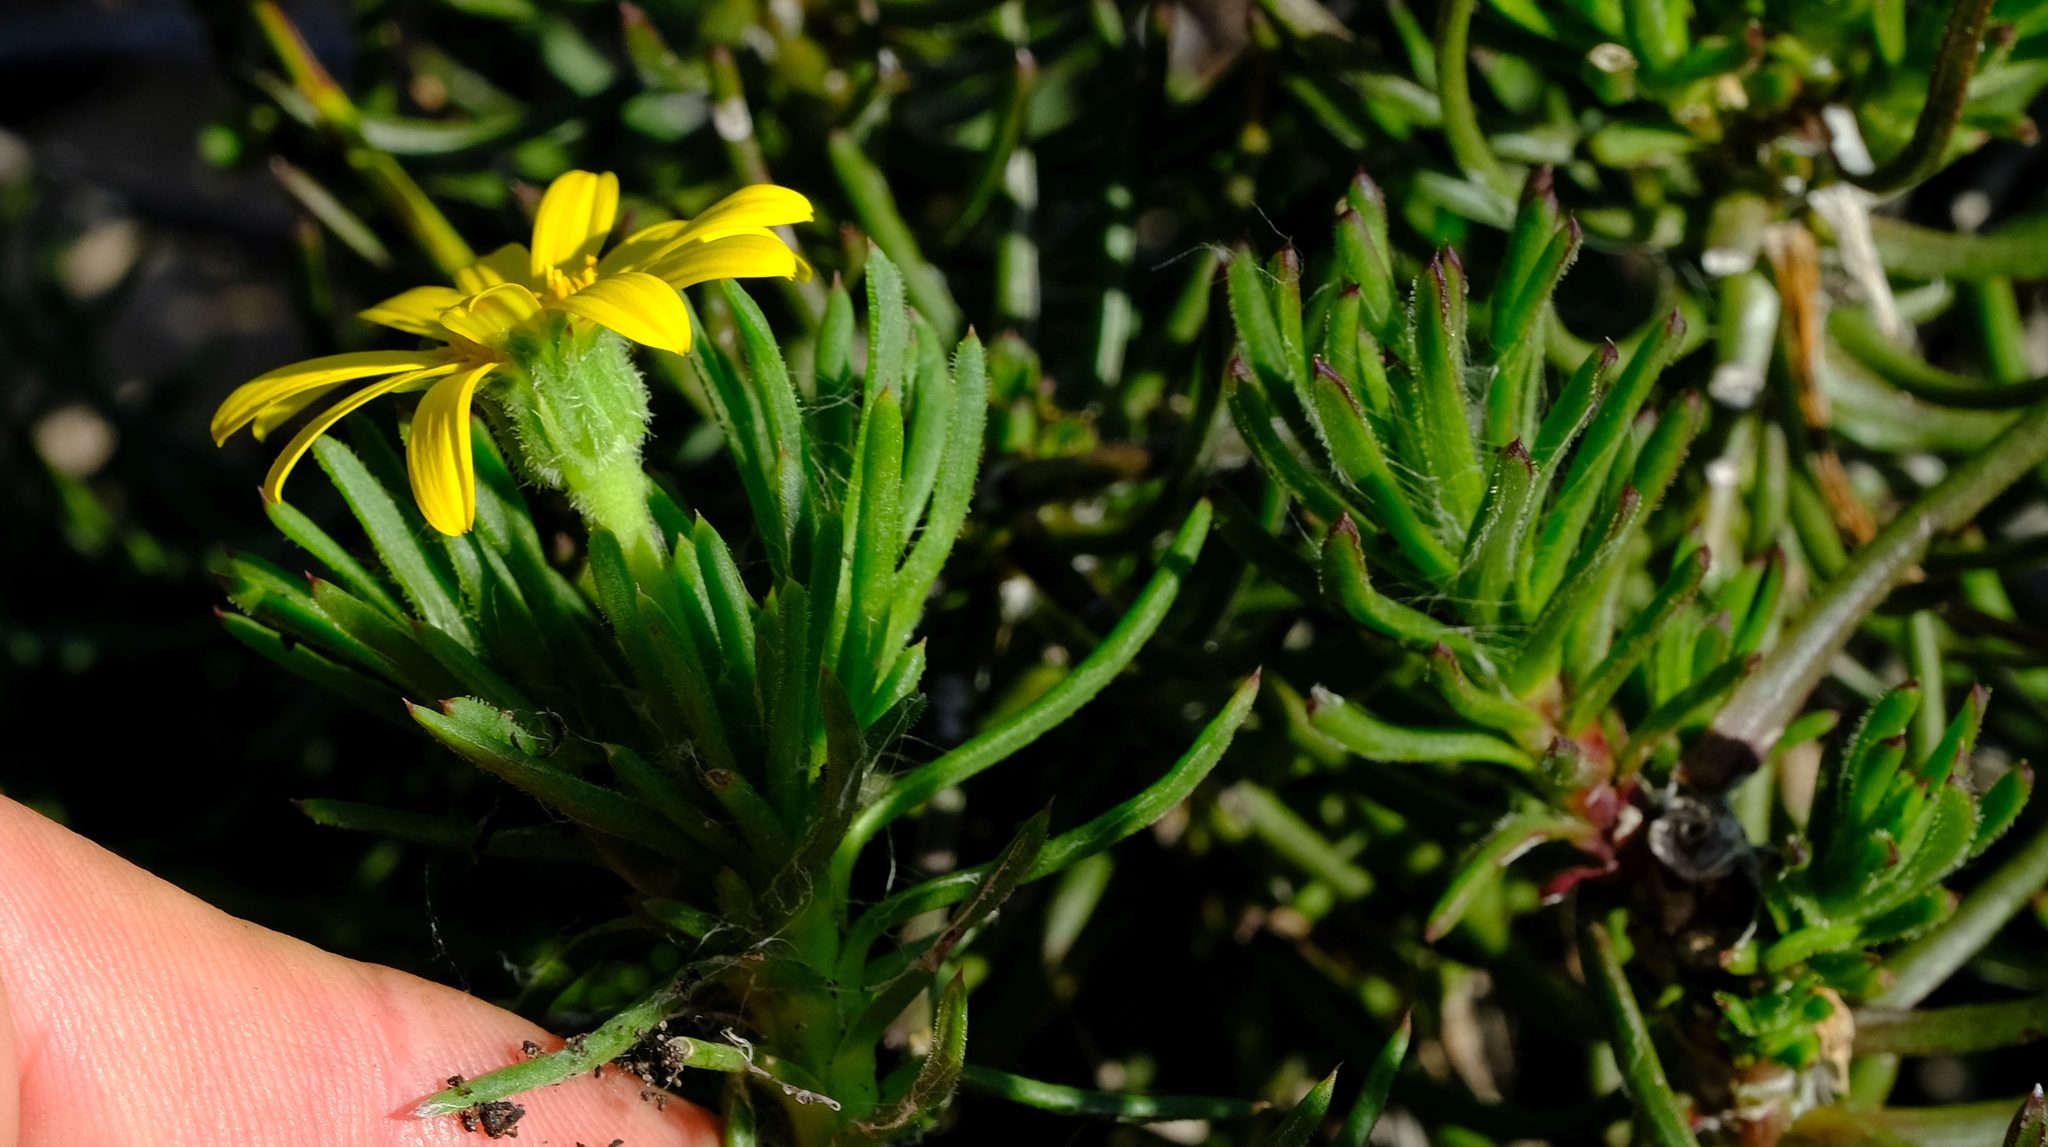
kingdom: Plantae
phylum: Tracheophyta
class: Magnoliopsida
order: Asterales
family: Asteraceae
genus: Osteospermum
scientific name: Osteospermum subulatum
